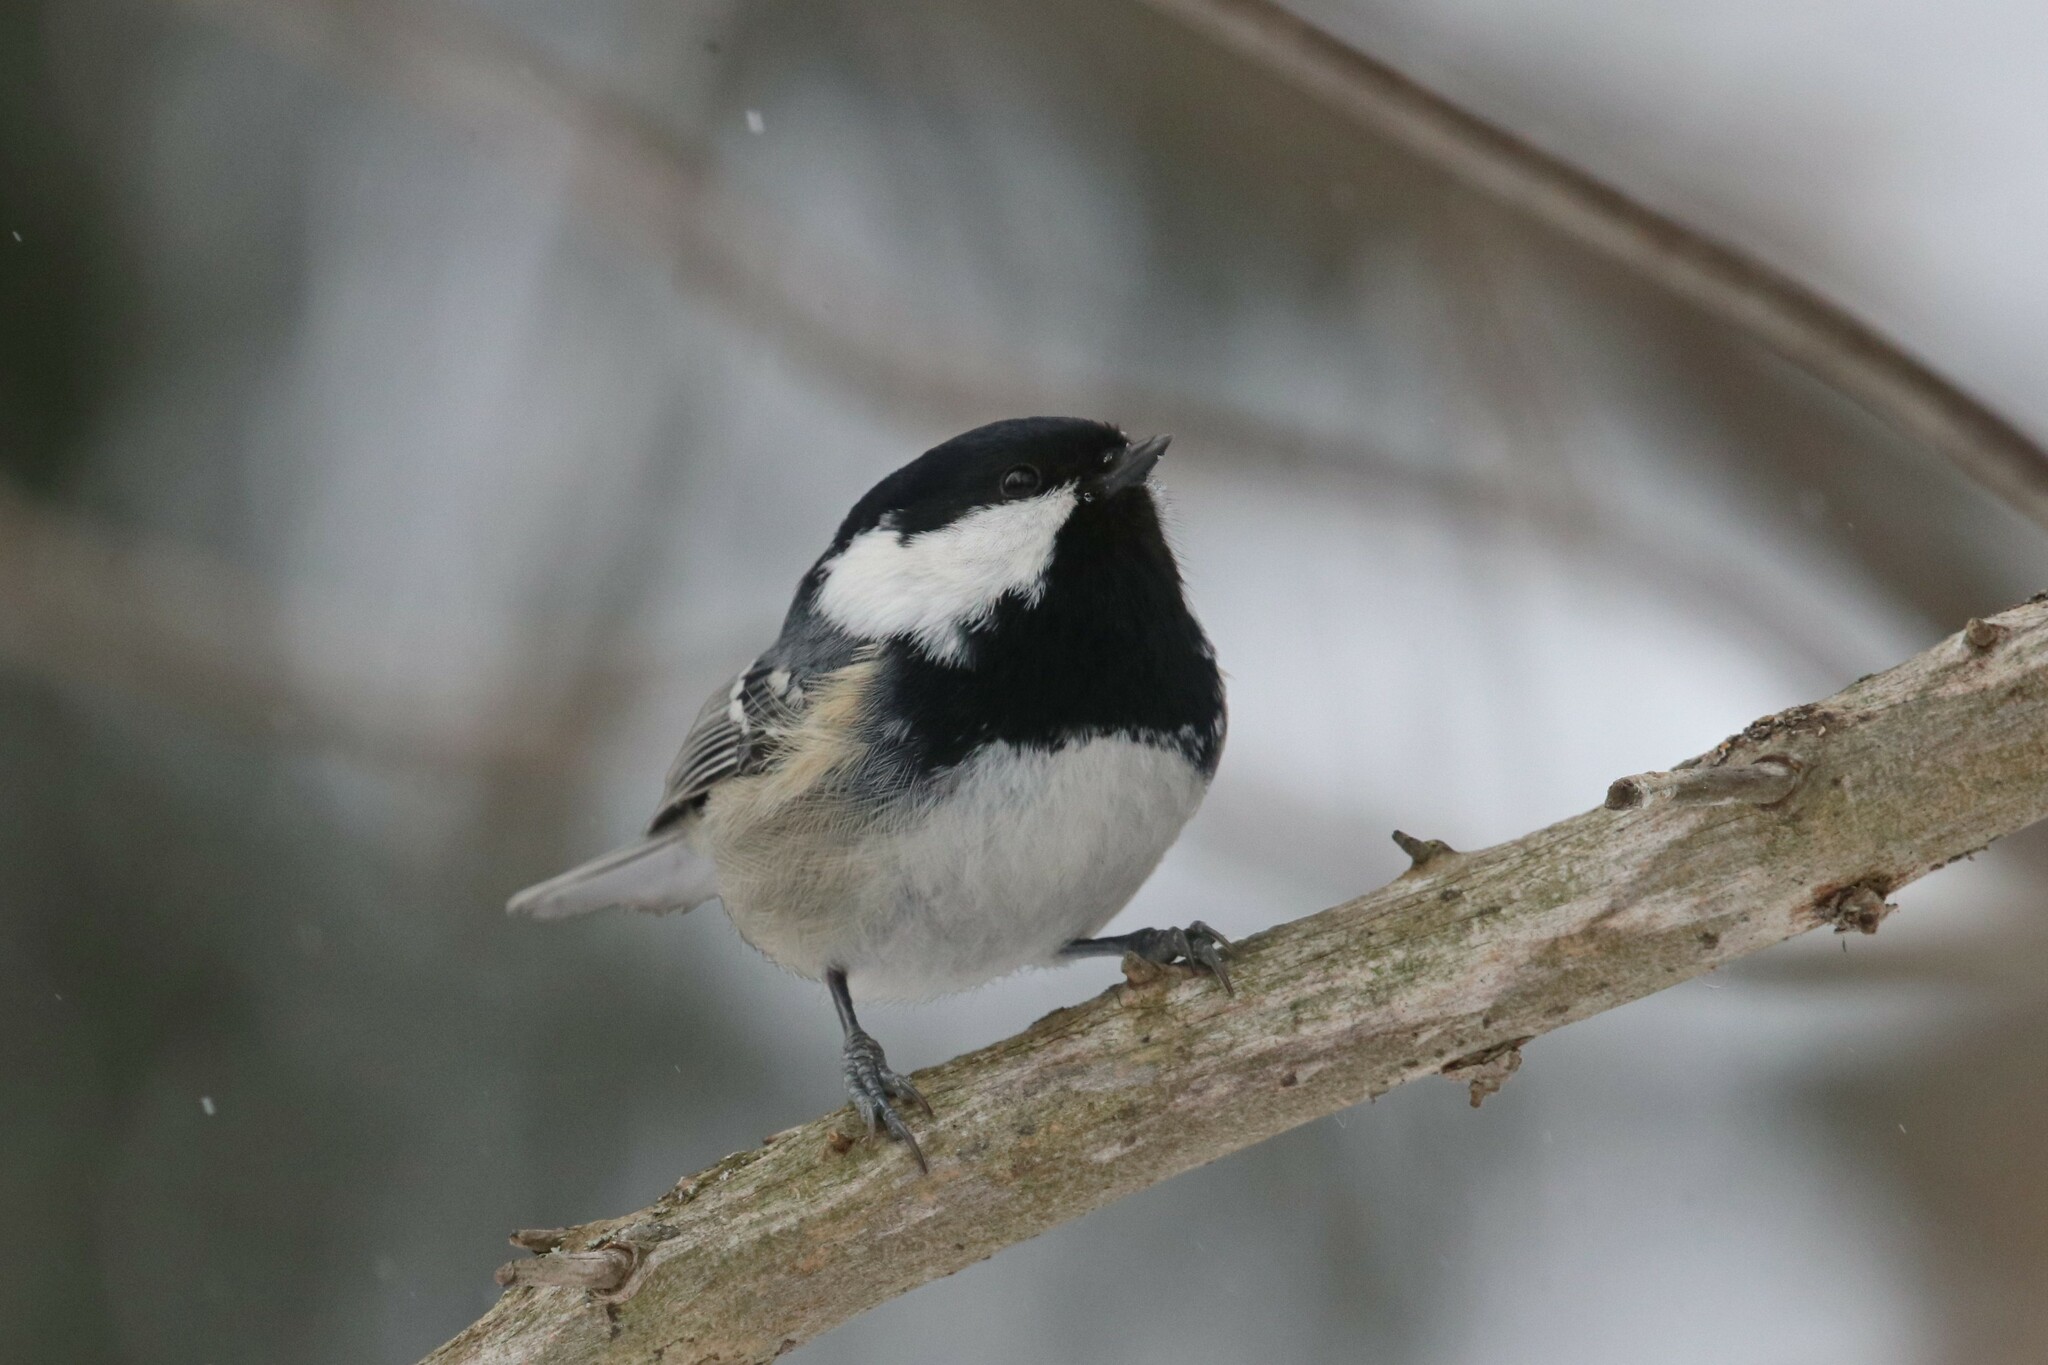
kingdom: Animalia
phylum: Chordata
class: Aves
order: Passeriformes
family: Paridae
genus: Periparus
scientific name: Periparus ater
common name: Coal tit
